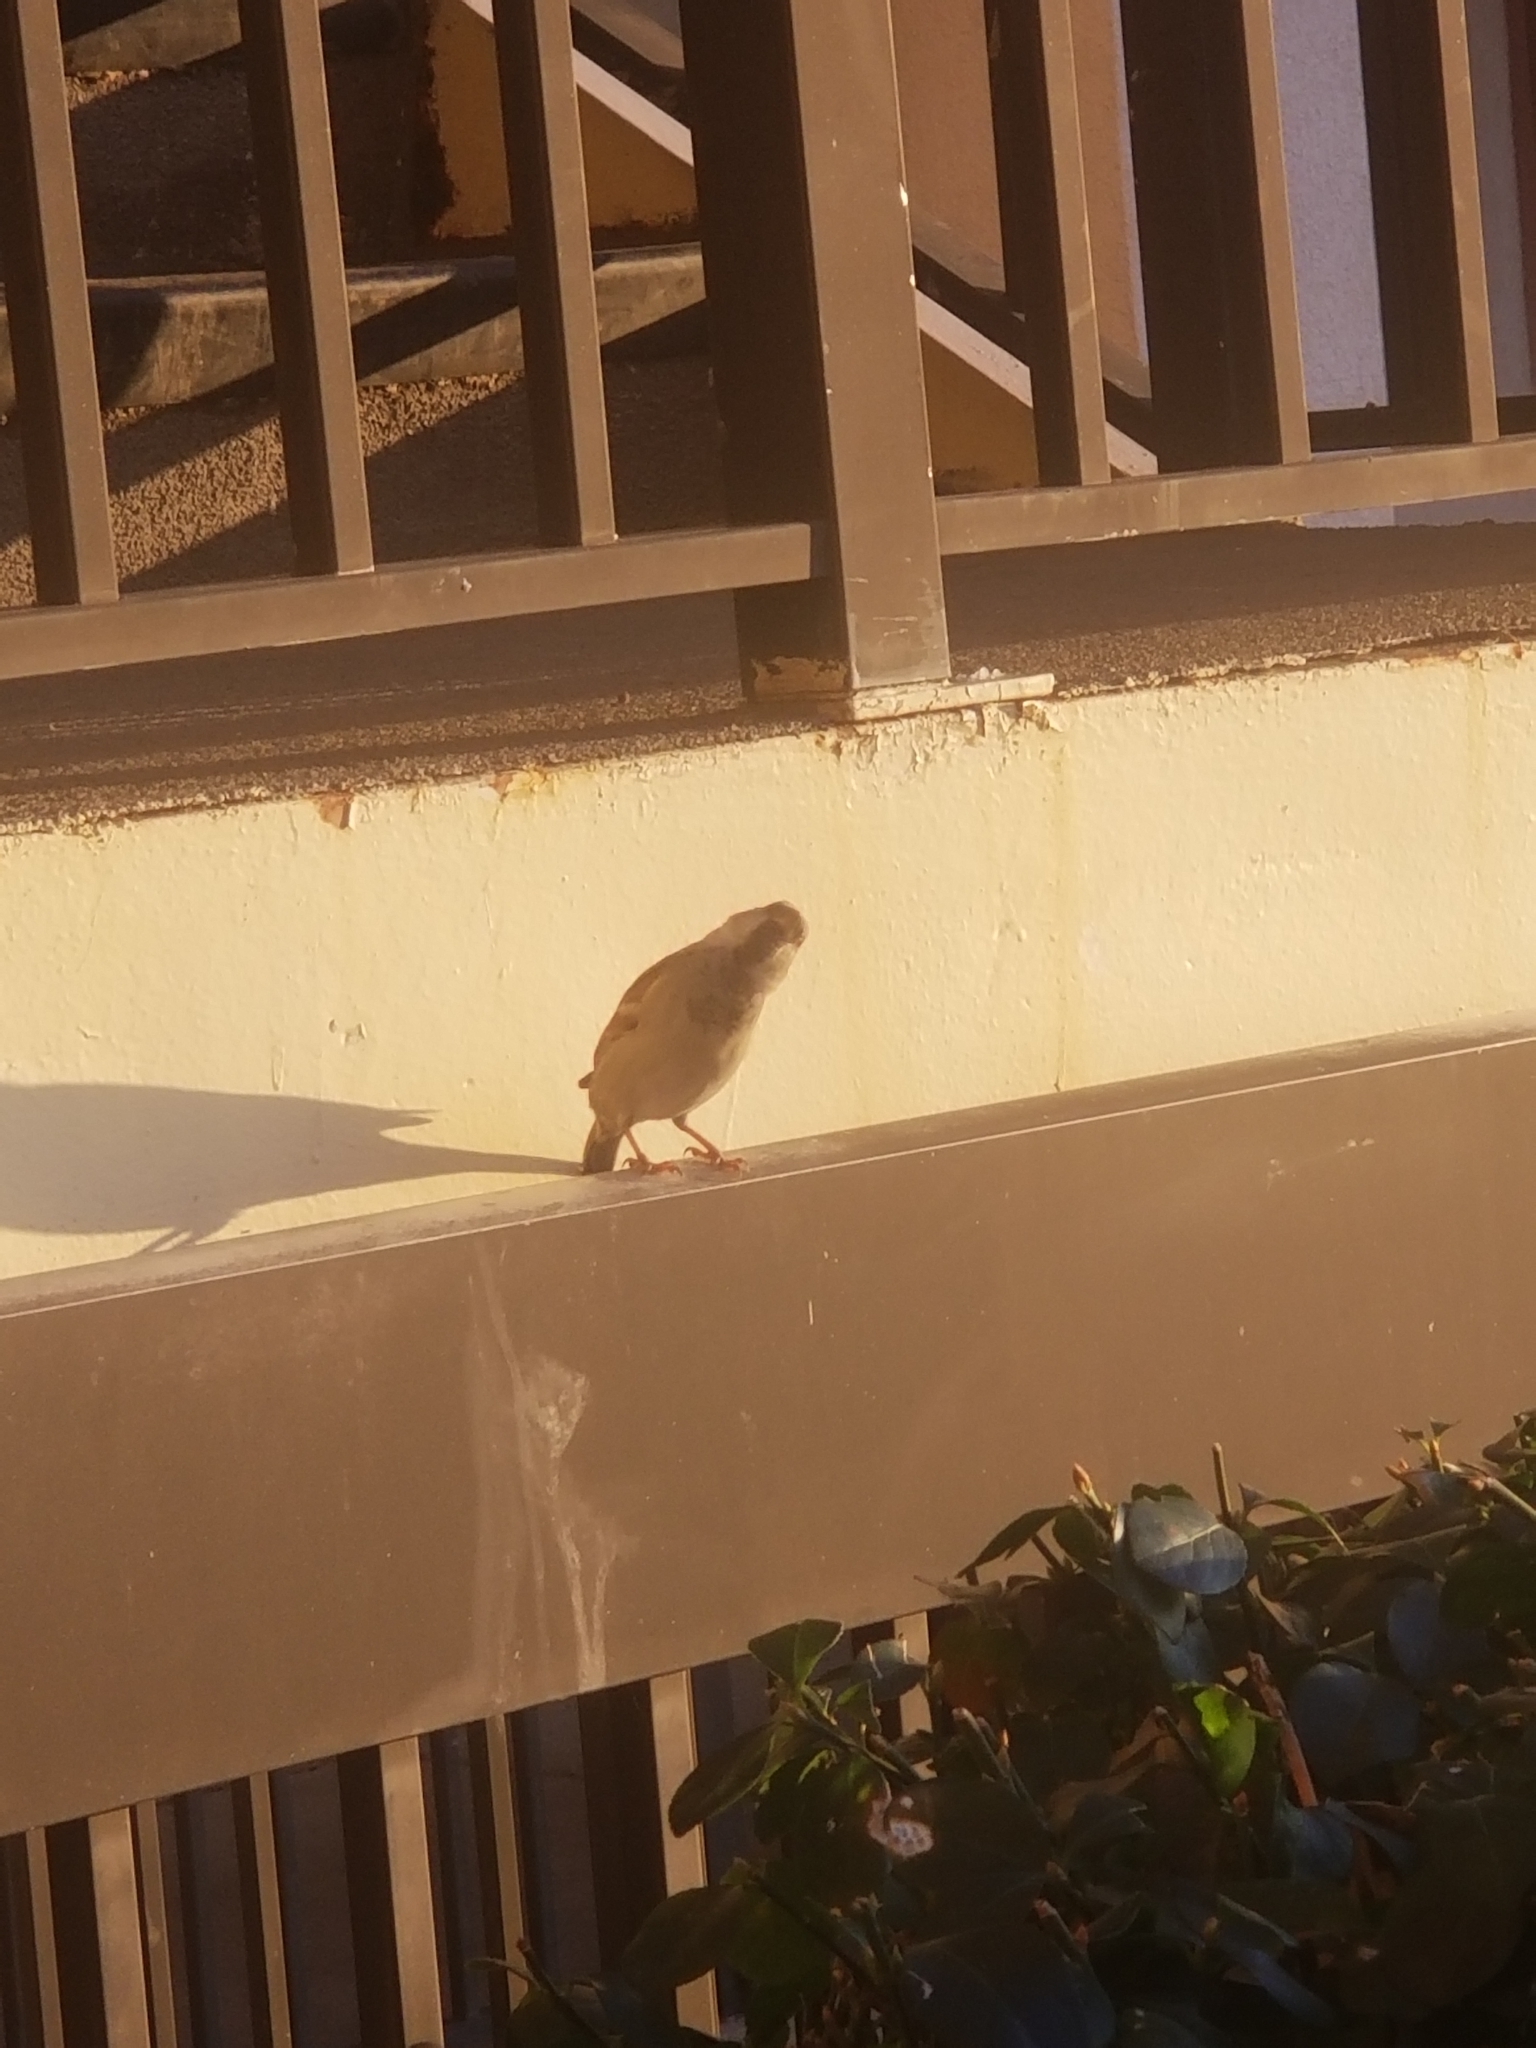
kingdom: Animalia
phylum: Chordata
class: Aves
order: Passeriformes
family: Passeridae
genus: Passer
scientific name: Passer domesticus
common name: House sparrow
